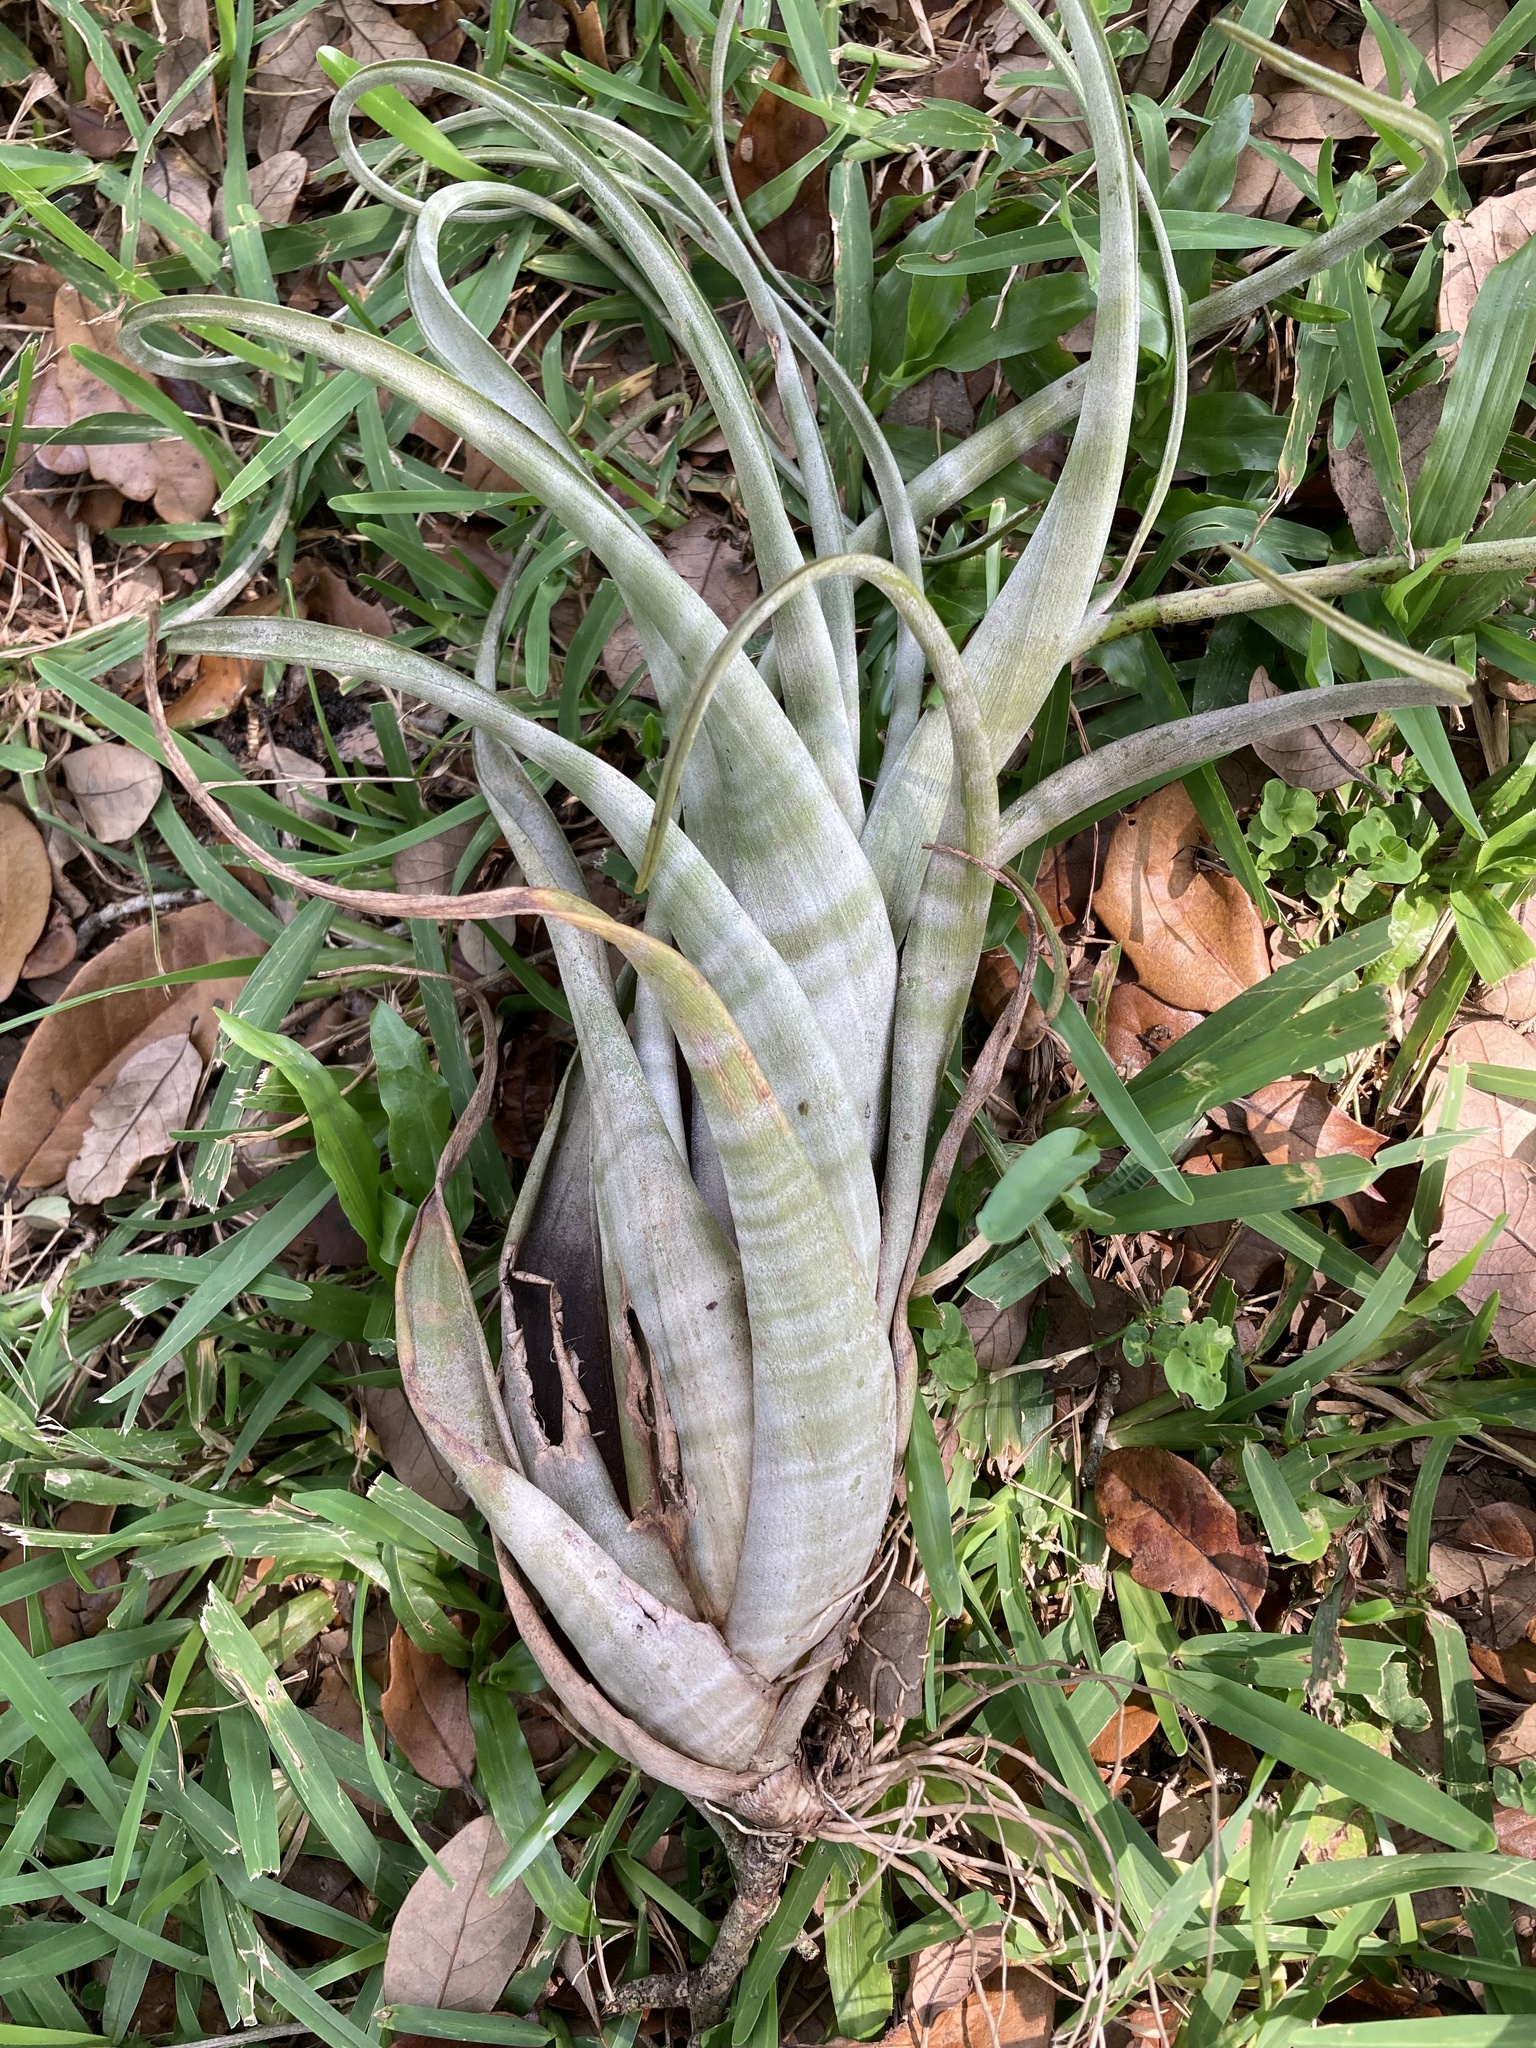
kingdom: Plantae
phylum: Tracheophyta
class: Liliopsida
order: Poales
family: Bromeliaceae
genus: Tillandsia
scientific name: Tillandsia flexuosa
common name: Banded airplant
